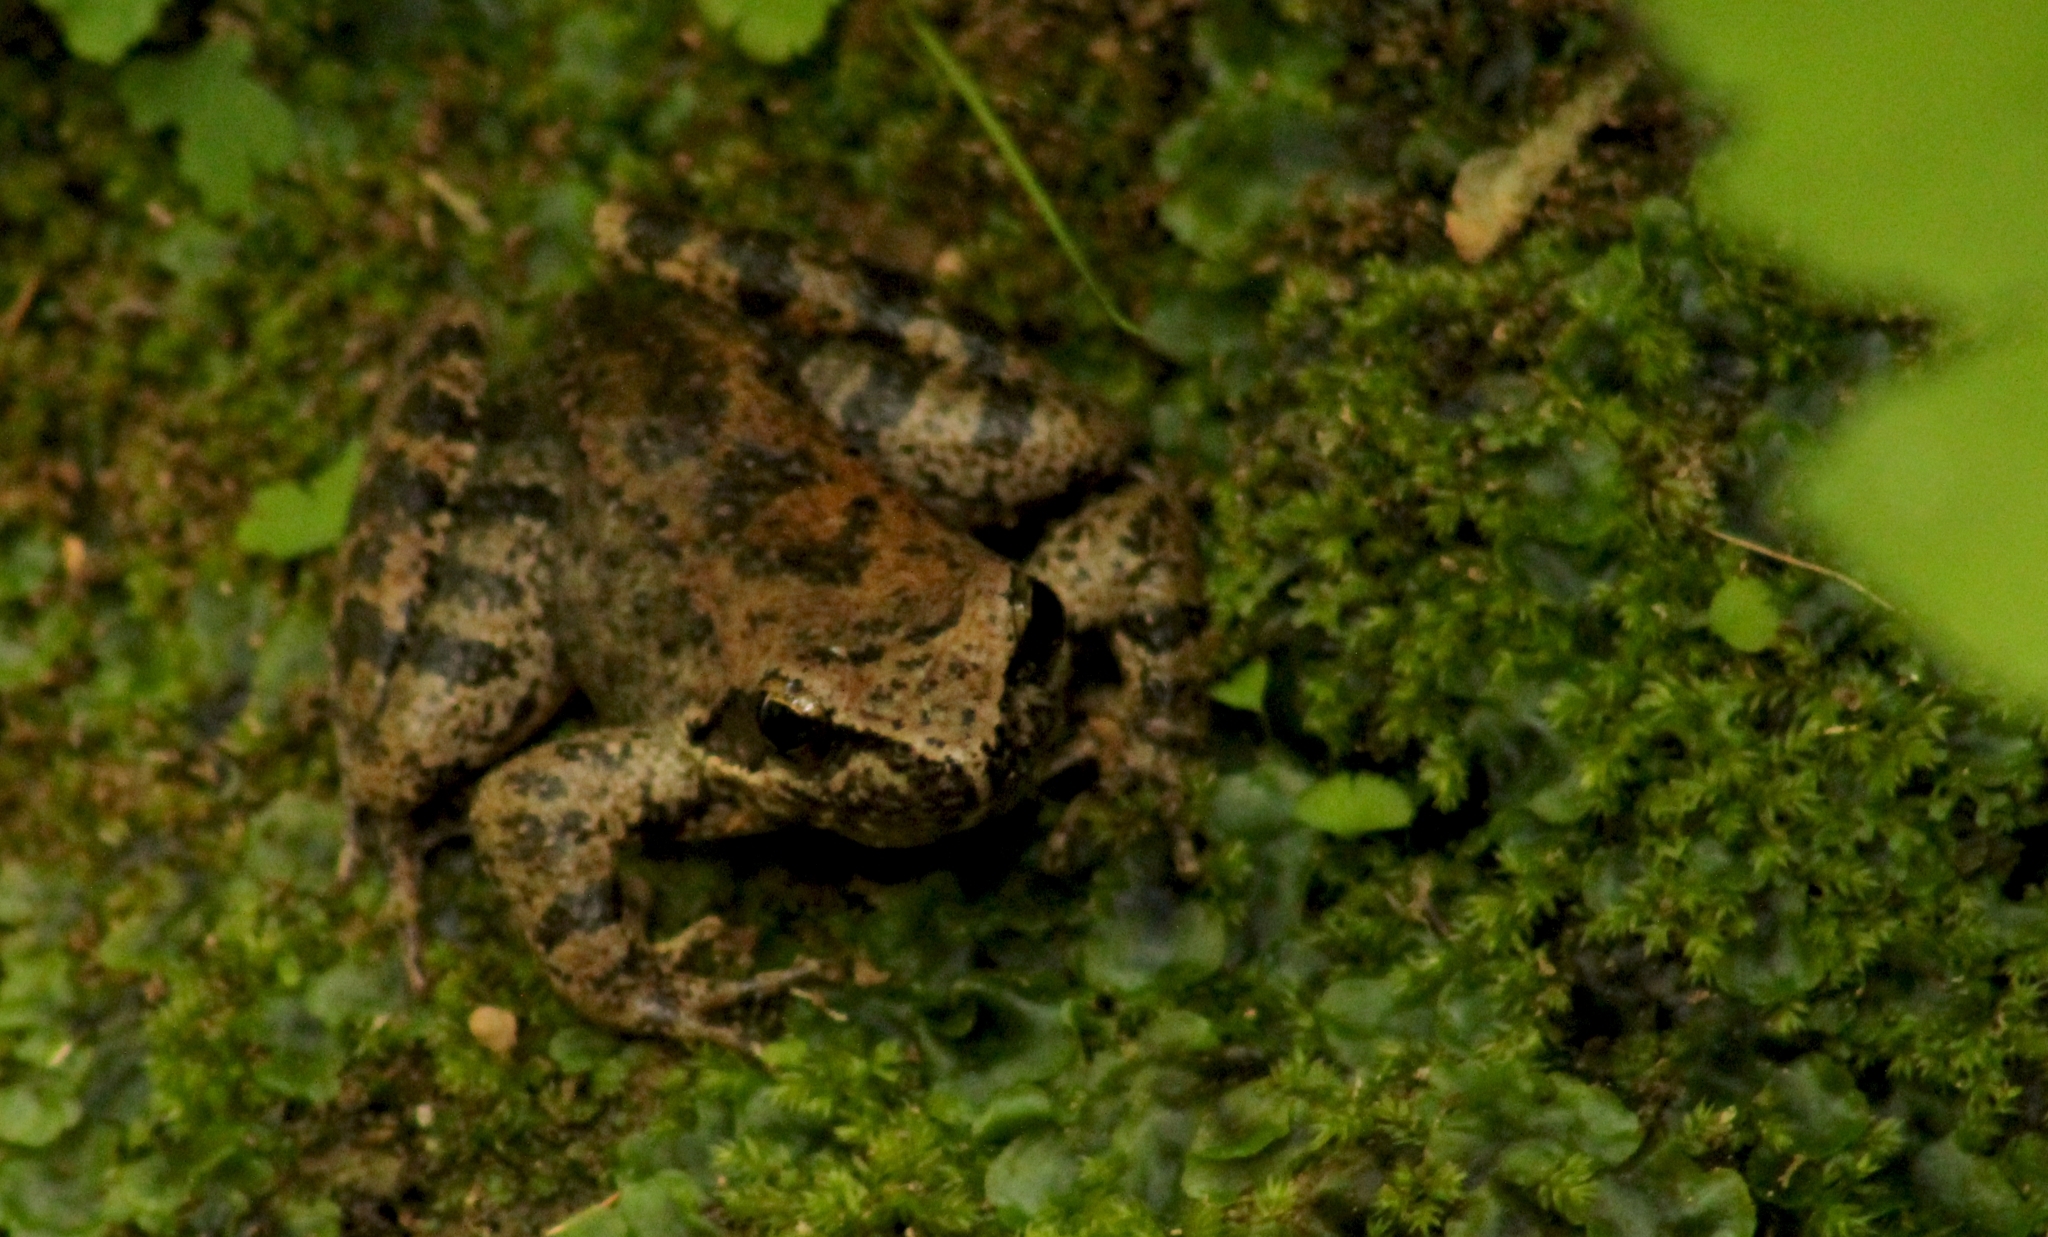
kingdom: Animalia
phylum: Chordata
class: Amphibia
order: Anura
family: Ranidae
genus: Rana
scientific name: Rana graeca
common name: Greek stream frog
